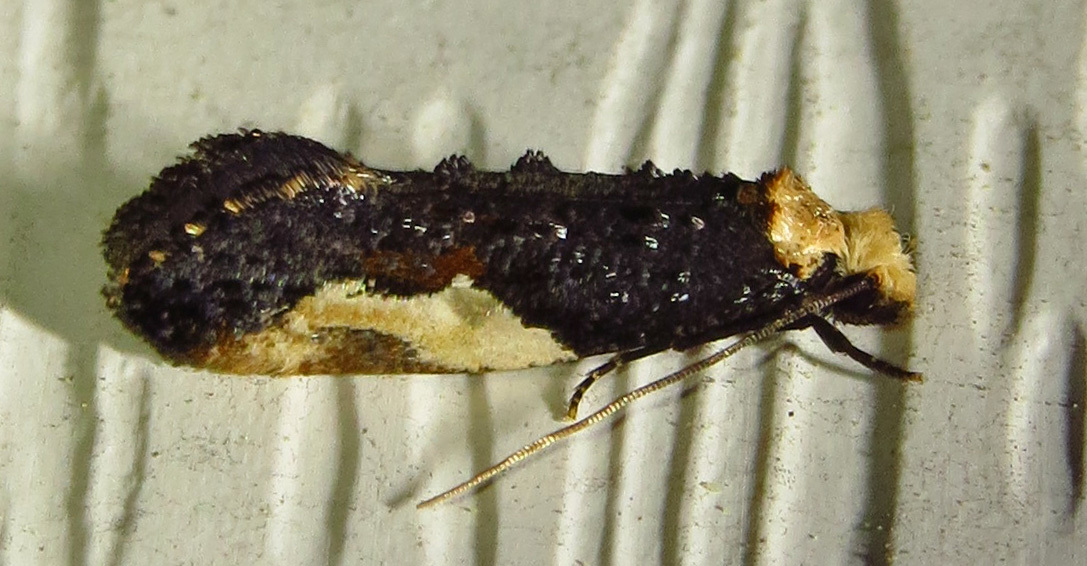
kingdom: Animalia
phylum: Arthropoda
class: Insecta
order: Lepidoptera
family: Tineidae
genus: Monopis
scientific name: Monopis longella
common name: Pavlovski's monopis moth
